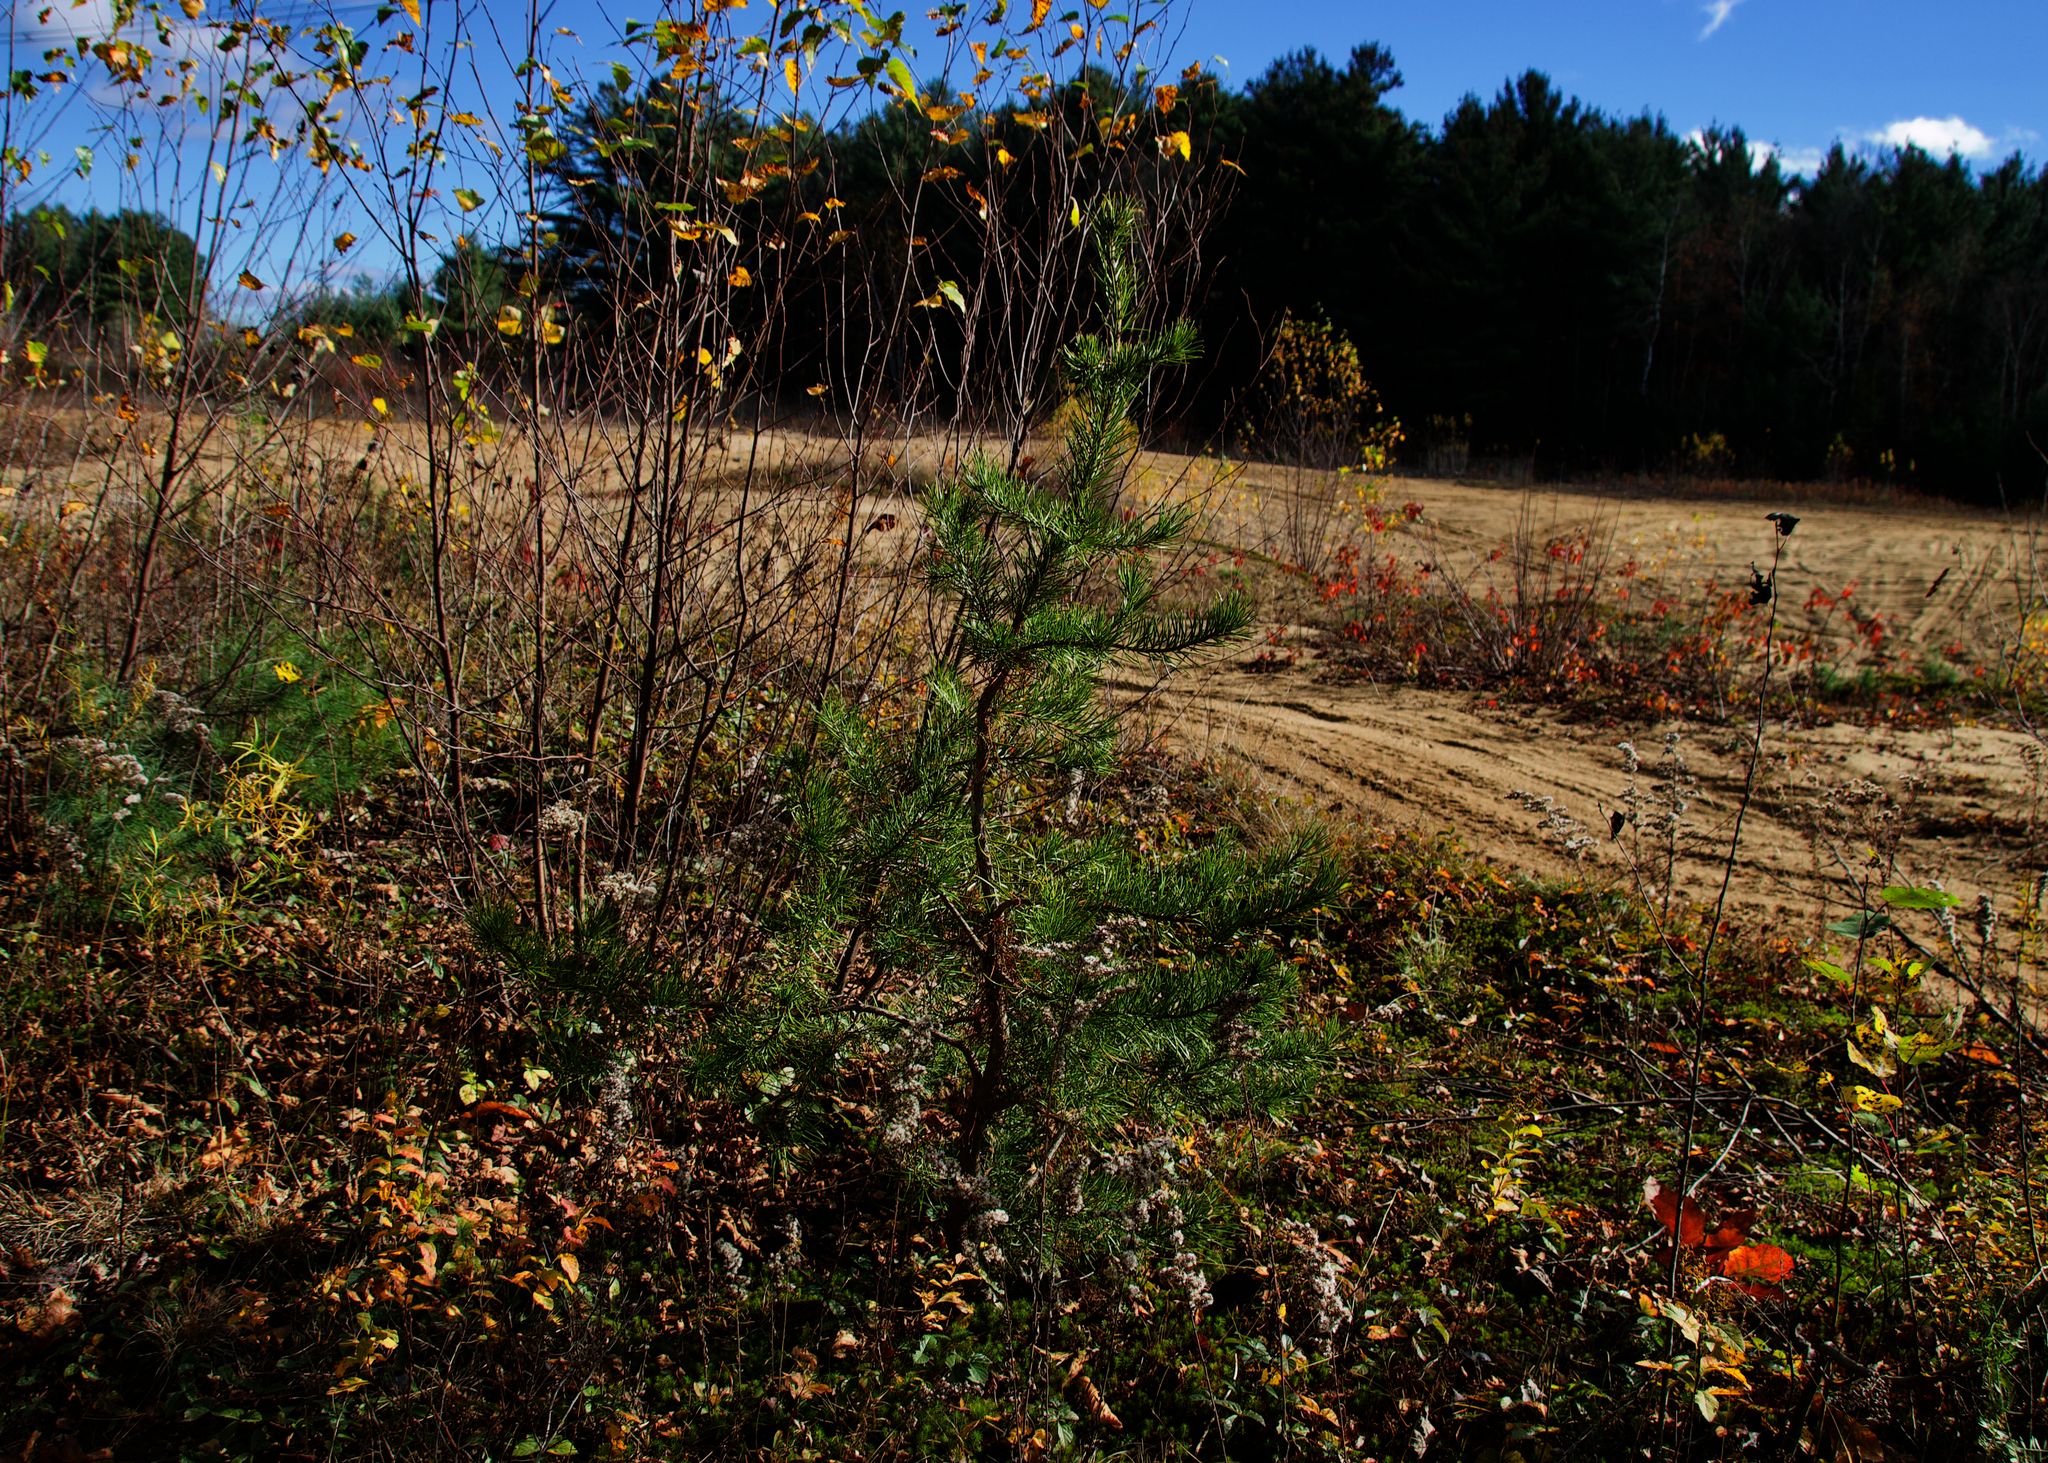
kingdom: Plantae
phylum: Tracheophyta
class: Pinopsida
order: Pinales
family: Pinaceae
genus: Pinus
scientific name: Pinus banksiana
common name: Jack pine
